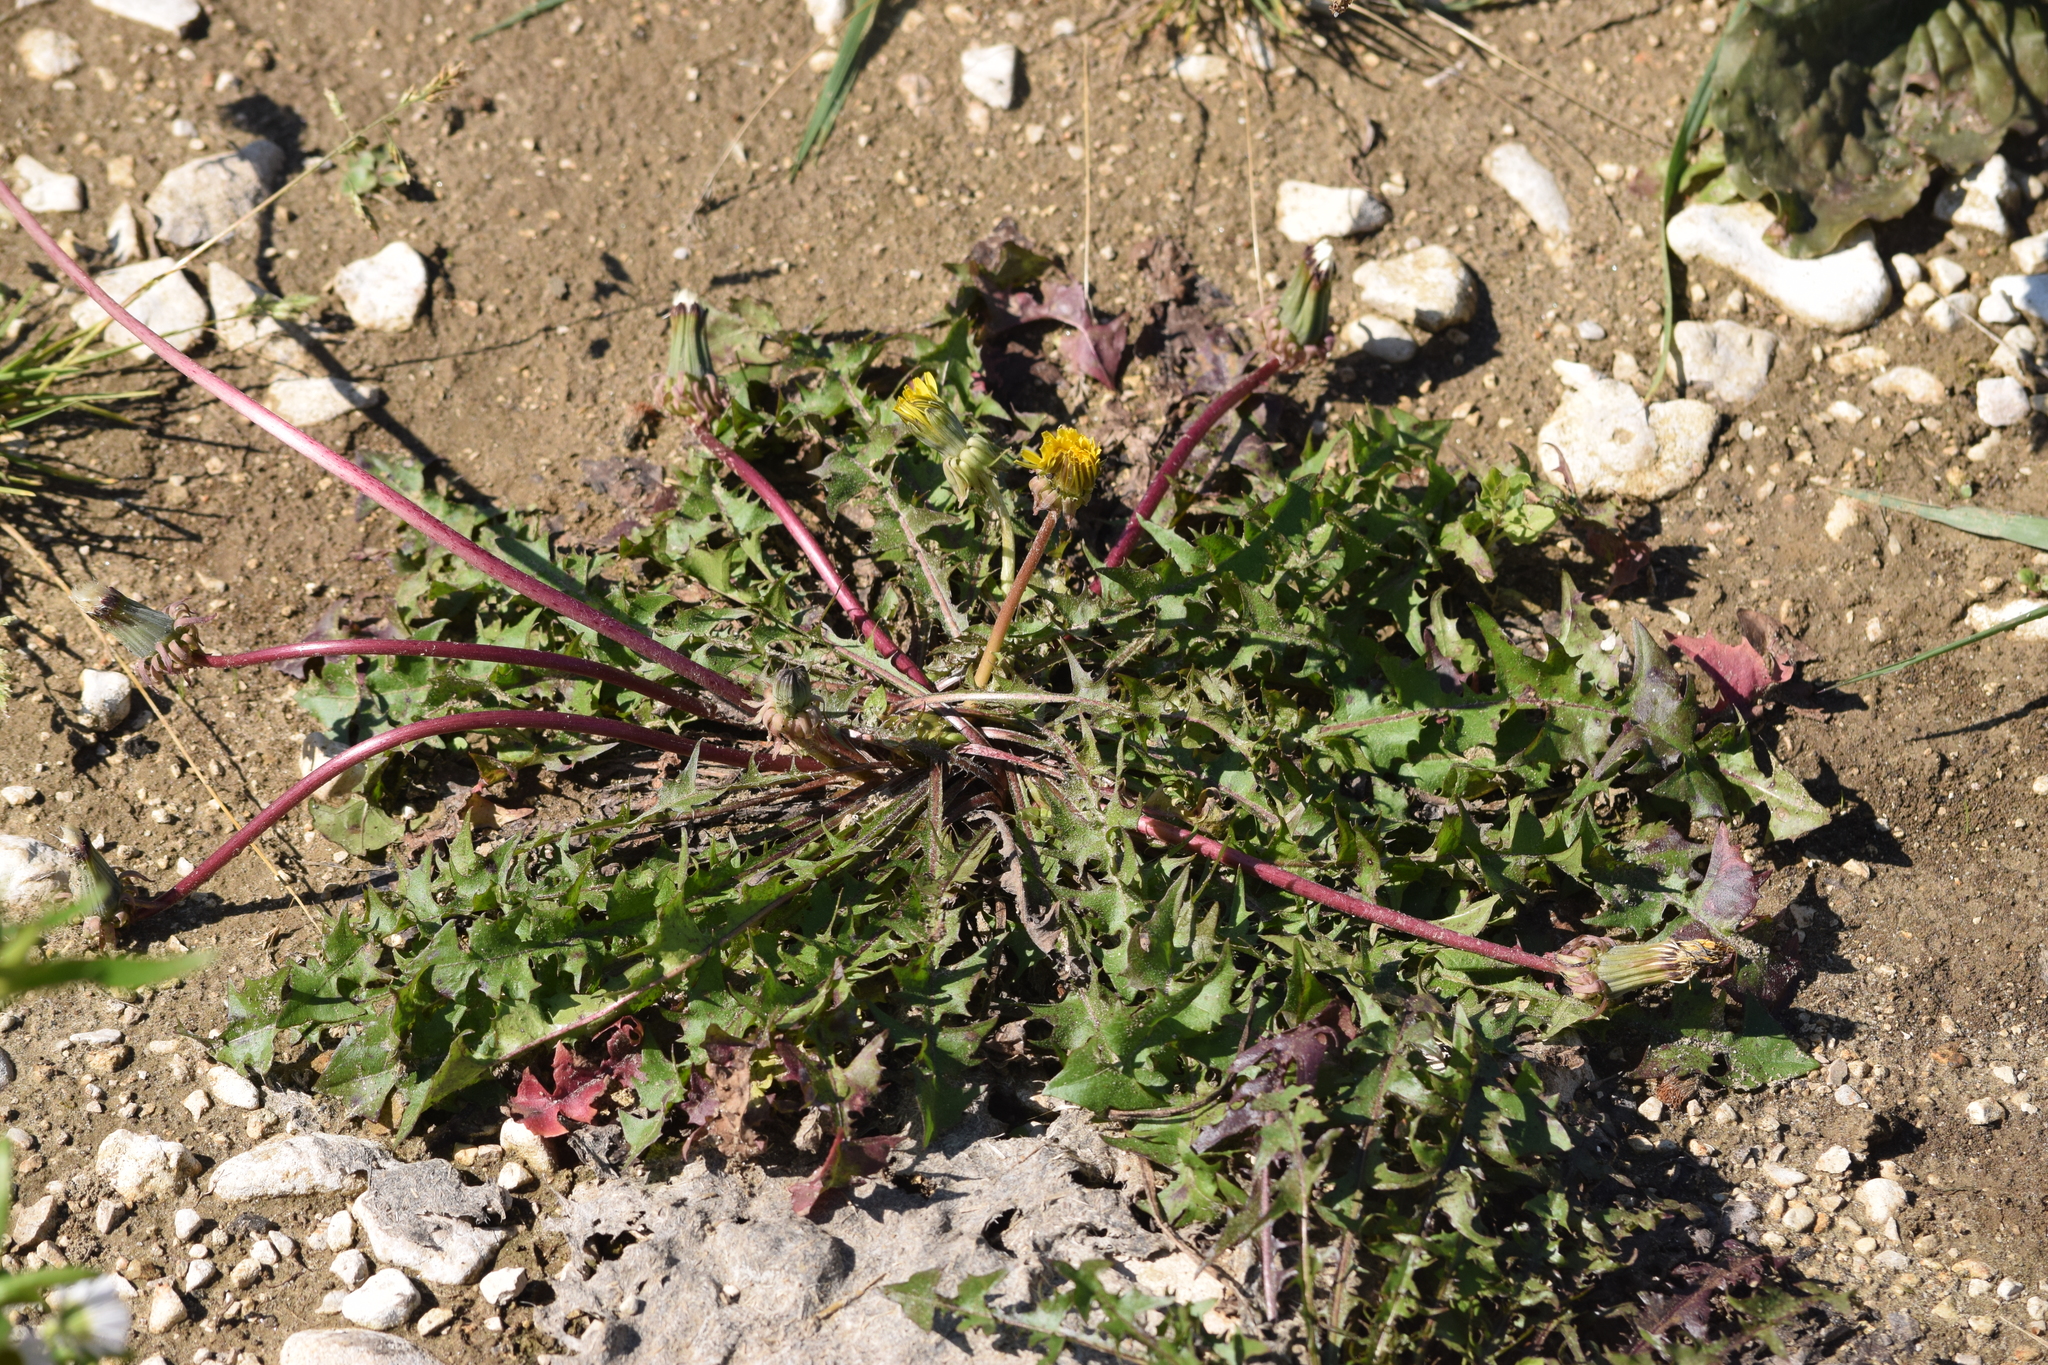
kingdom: Plantae
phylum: Tracheophyta
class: Magnoliopsida
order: Asterales
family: Asteraceae
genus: Taraxacum
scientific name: Taraxacum officinale
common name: Common dandelion
